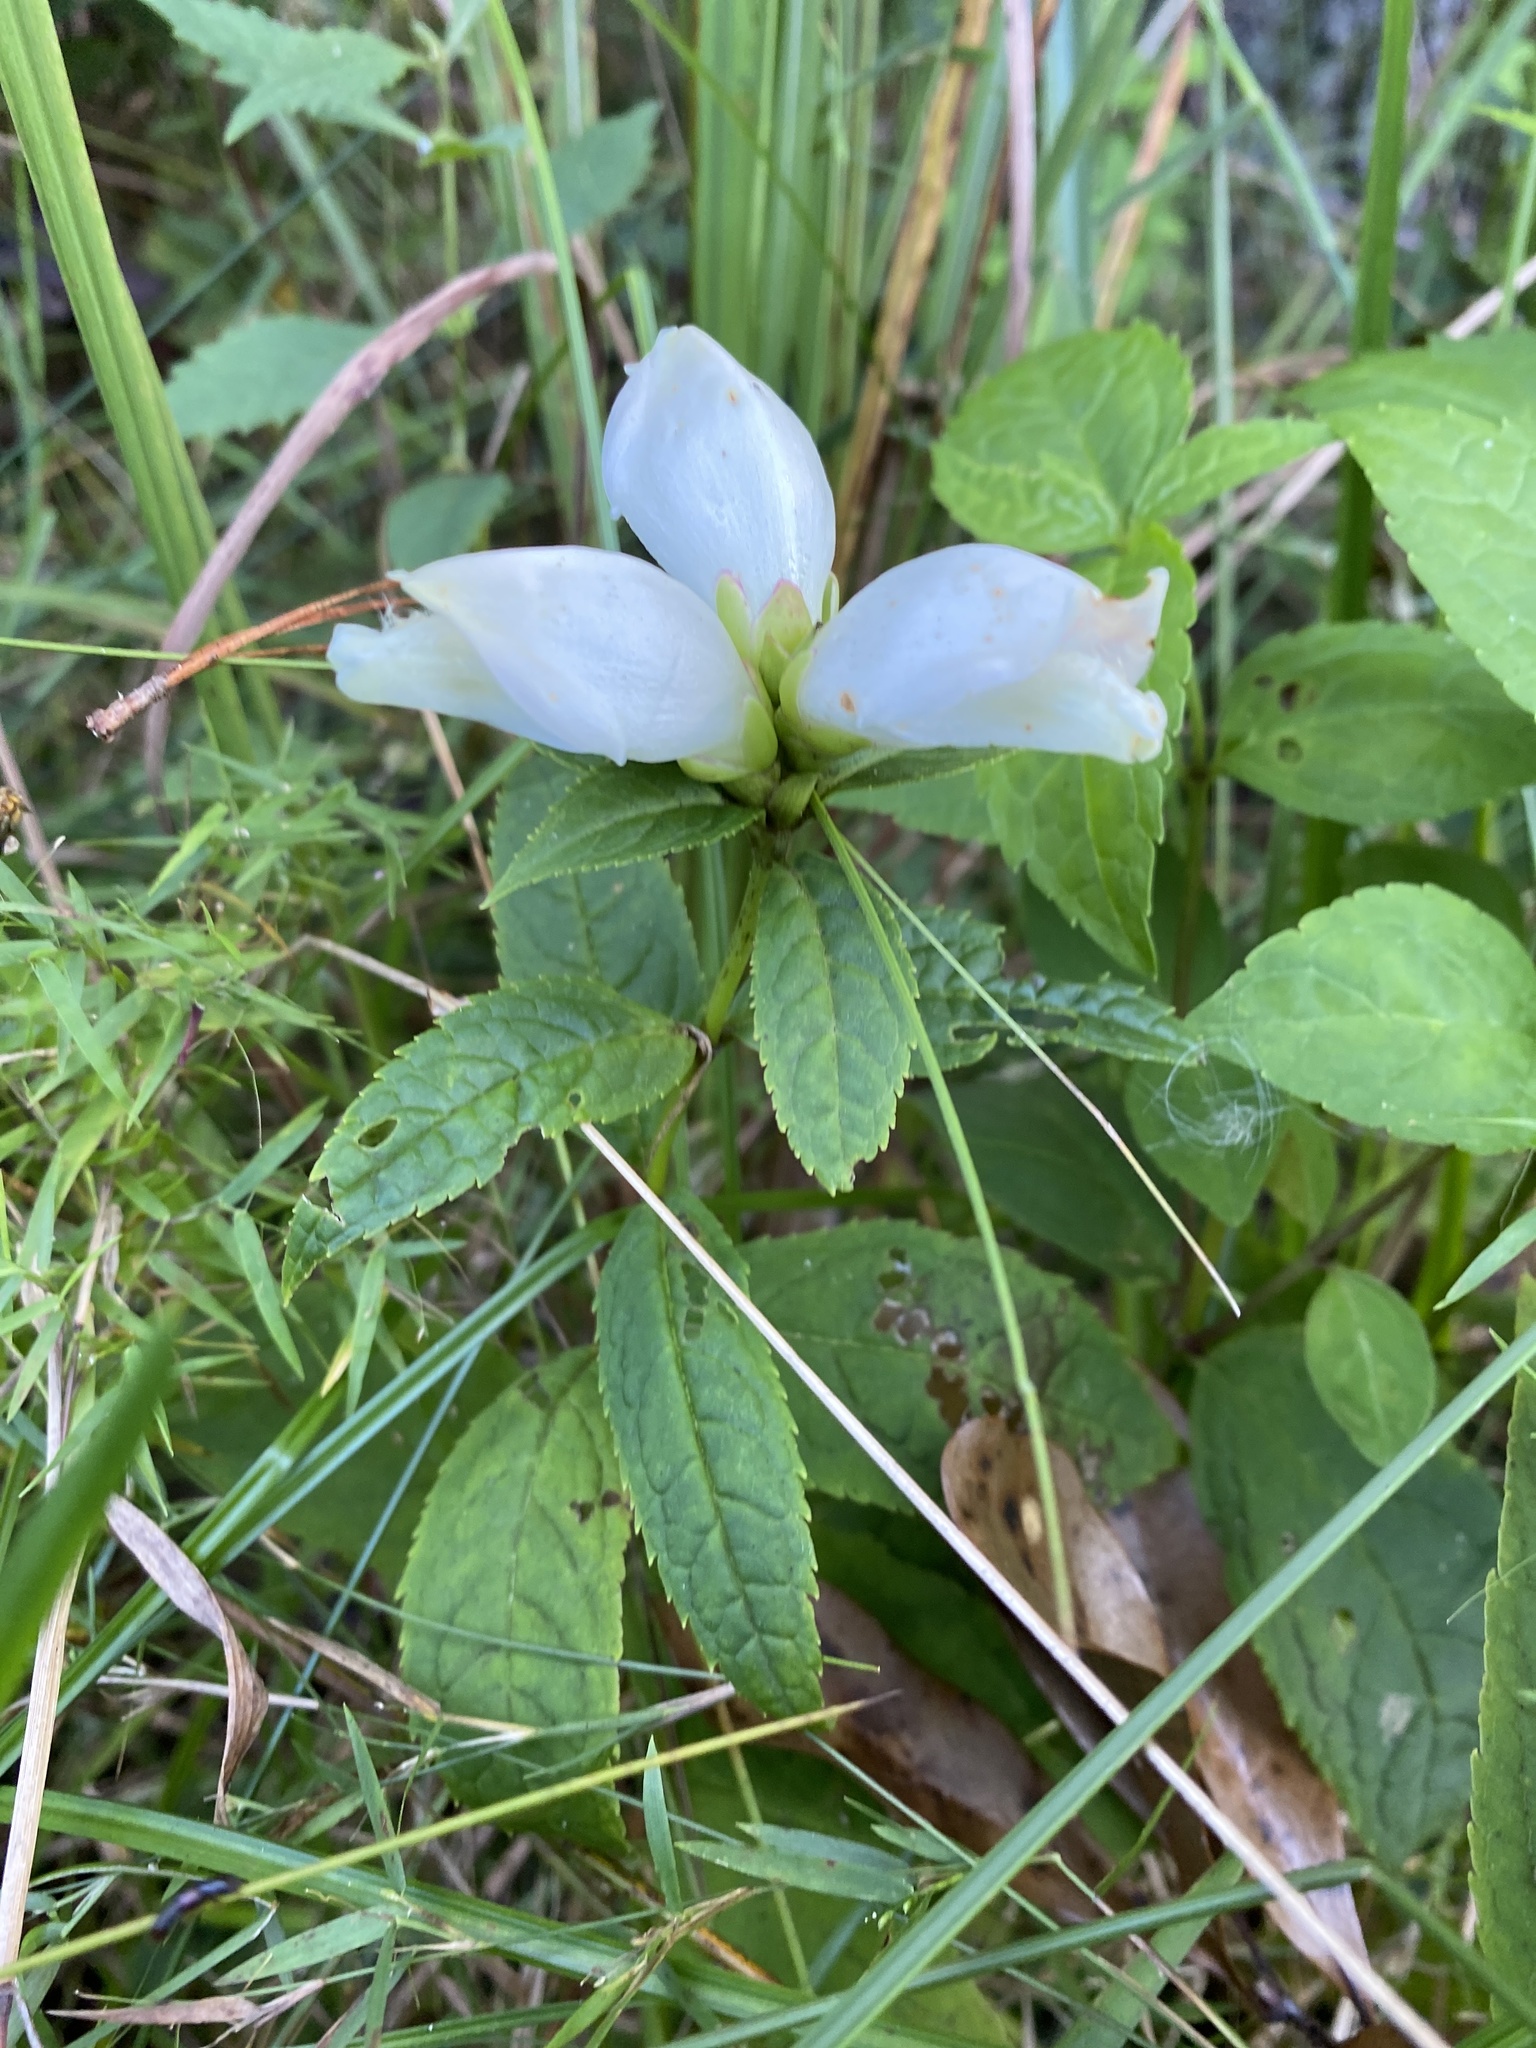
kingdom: Plantae
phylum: Tracheophyta
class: Magnoliopsida
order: Lamiales
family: Plantaginaceae
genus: Chelone
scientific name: Chelone glabra
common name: Snakehead
